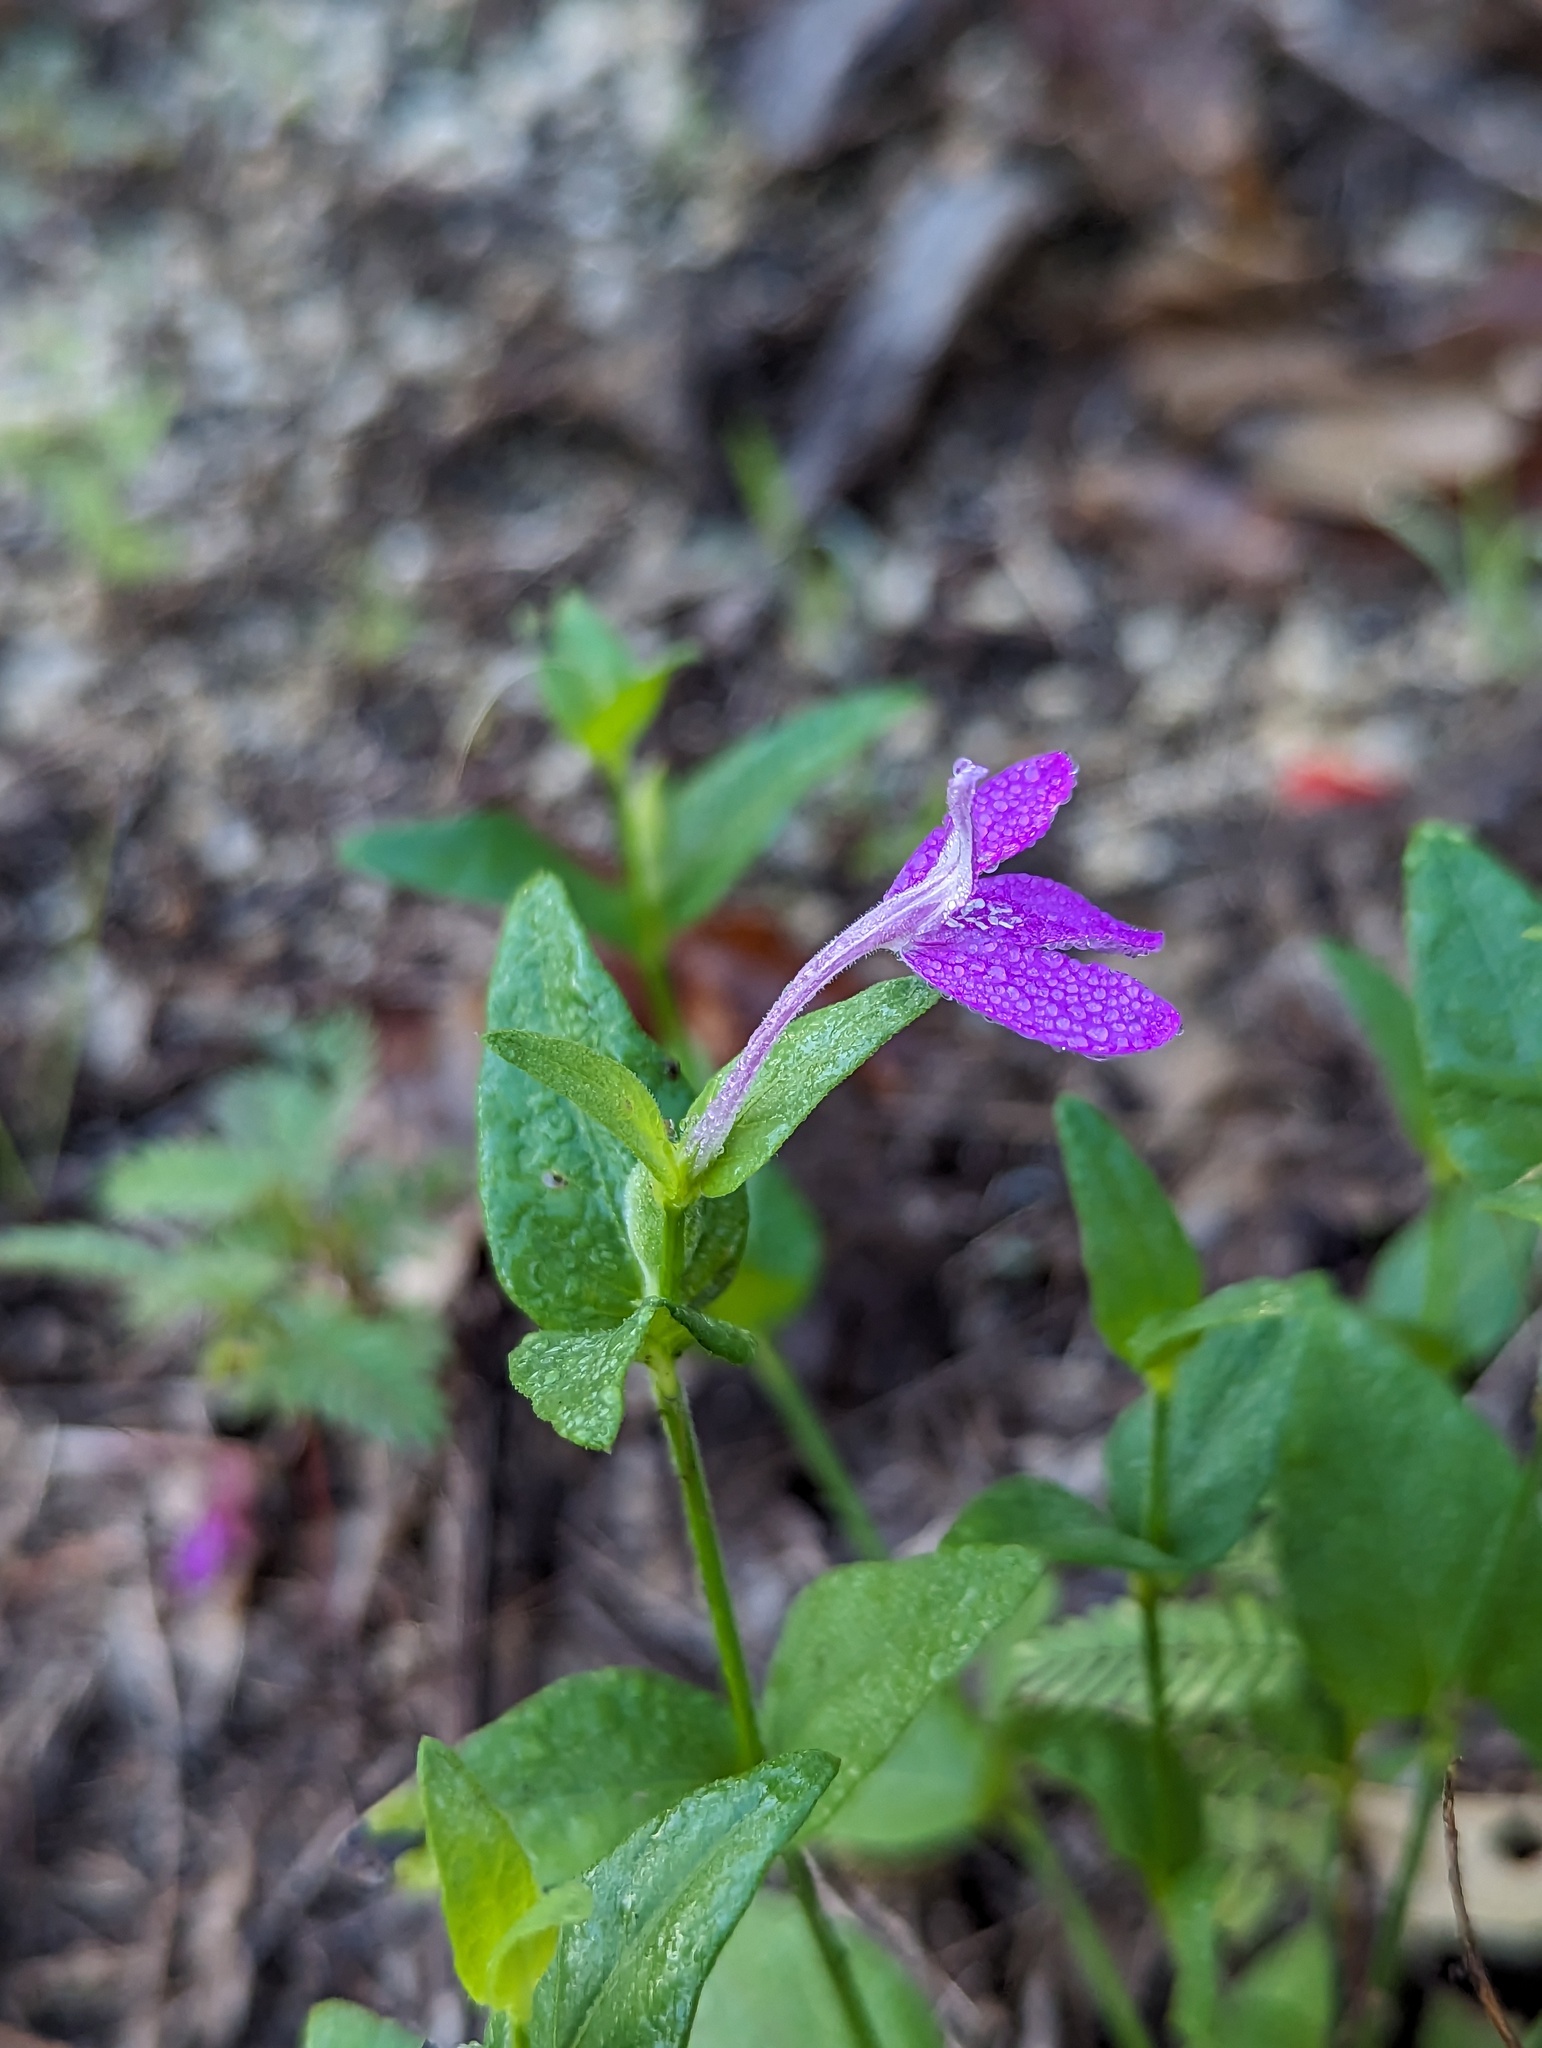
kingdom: Plantae
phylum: Tracheophyta
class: Magnoliopsida
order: Lamiales
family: Acanthaceae
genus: Dianthera
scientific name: Dianthera incerta
